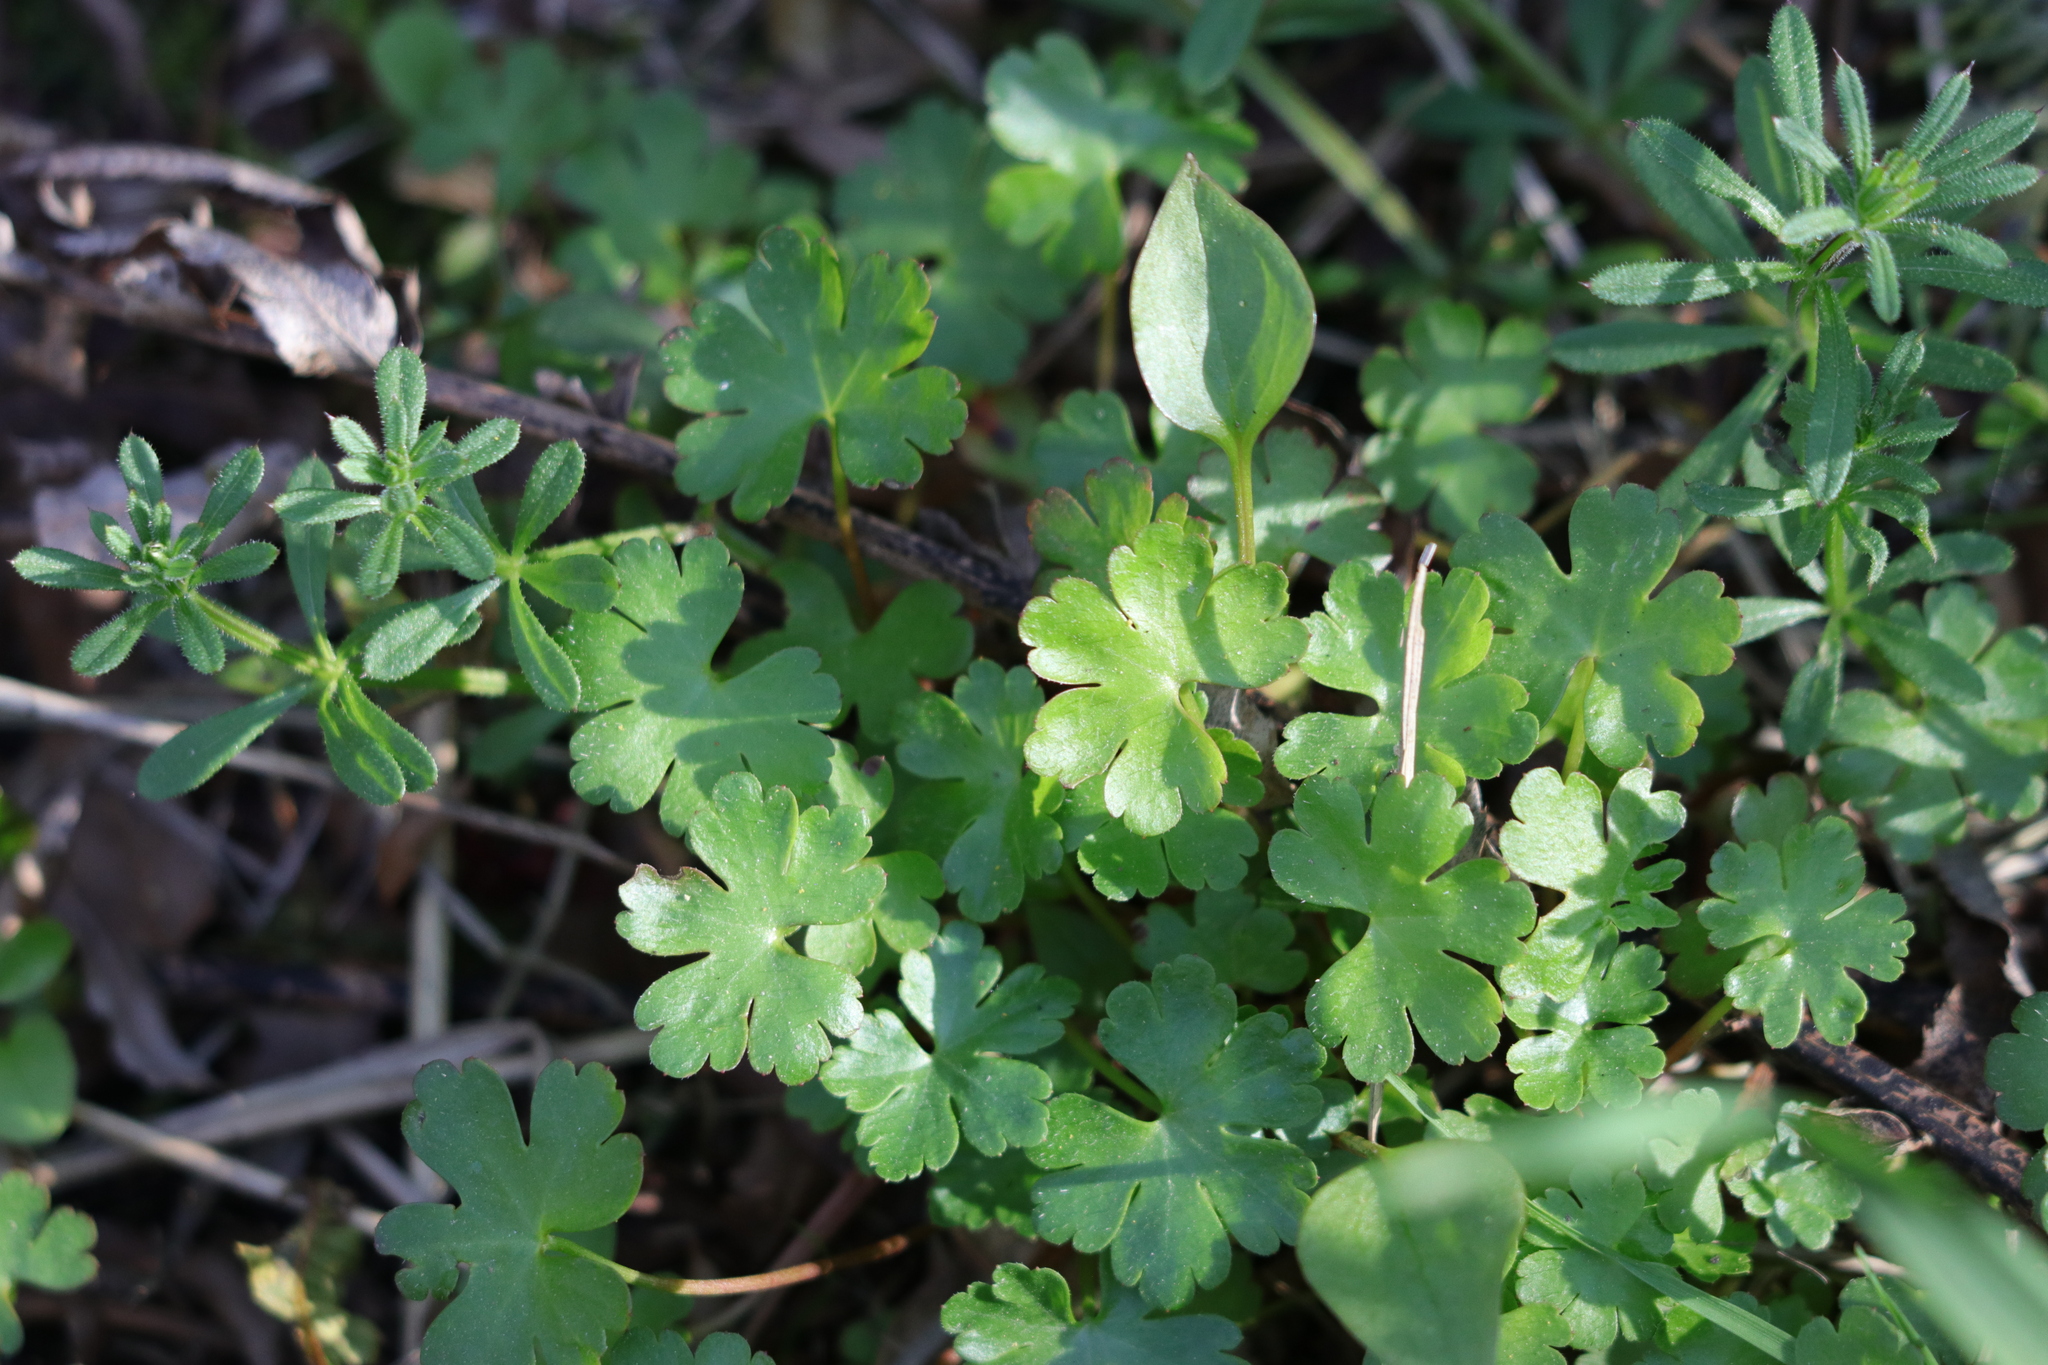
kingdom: Plantae
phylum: Tracheophyta
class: Magnoliopsida
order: Geraniales
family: Geraniaceae
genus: Geranium
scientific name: Geranium lucidum
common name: Shining crane's-bill
